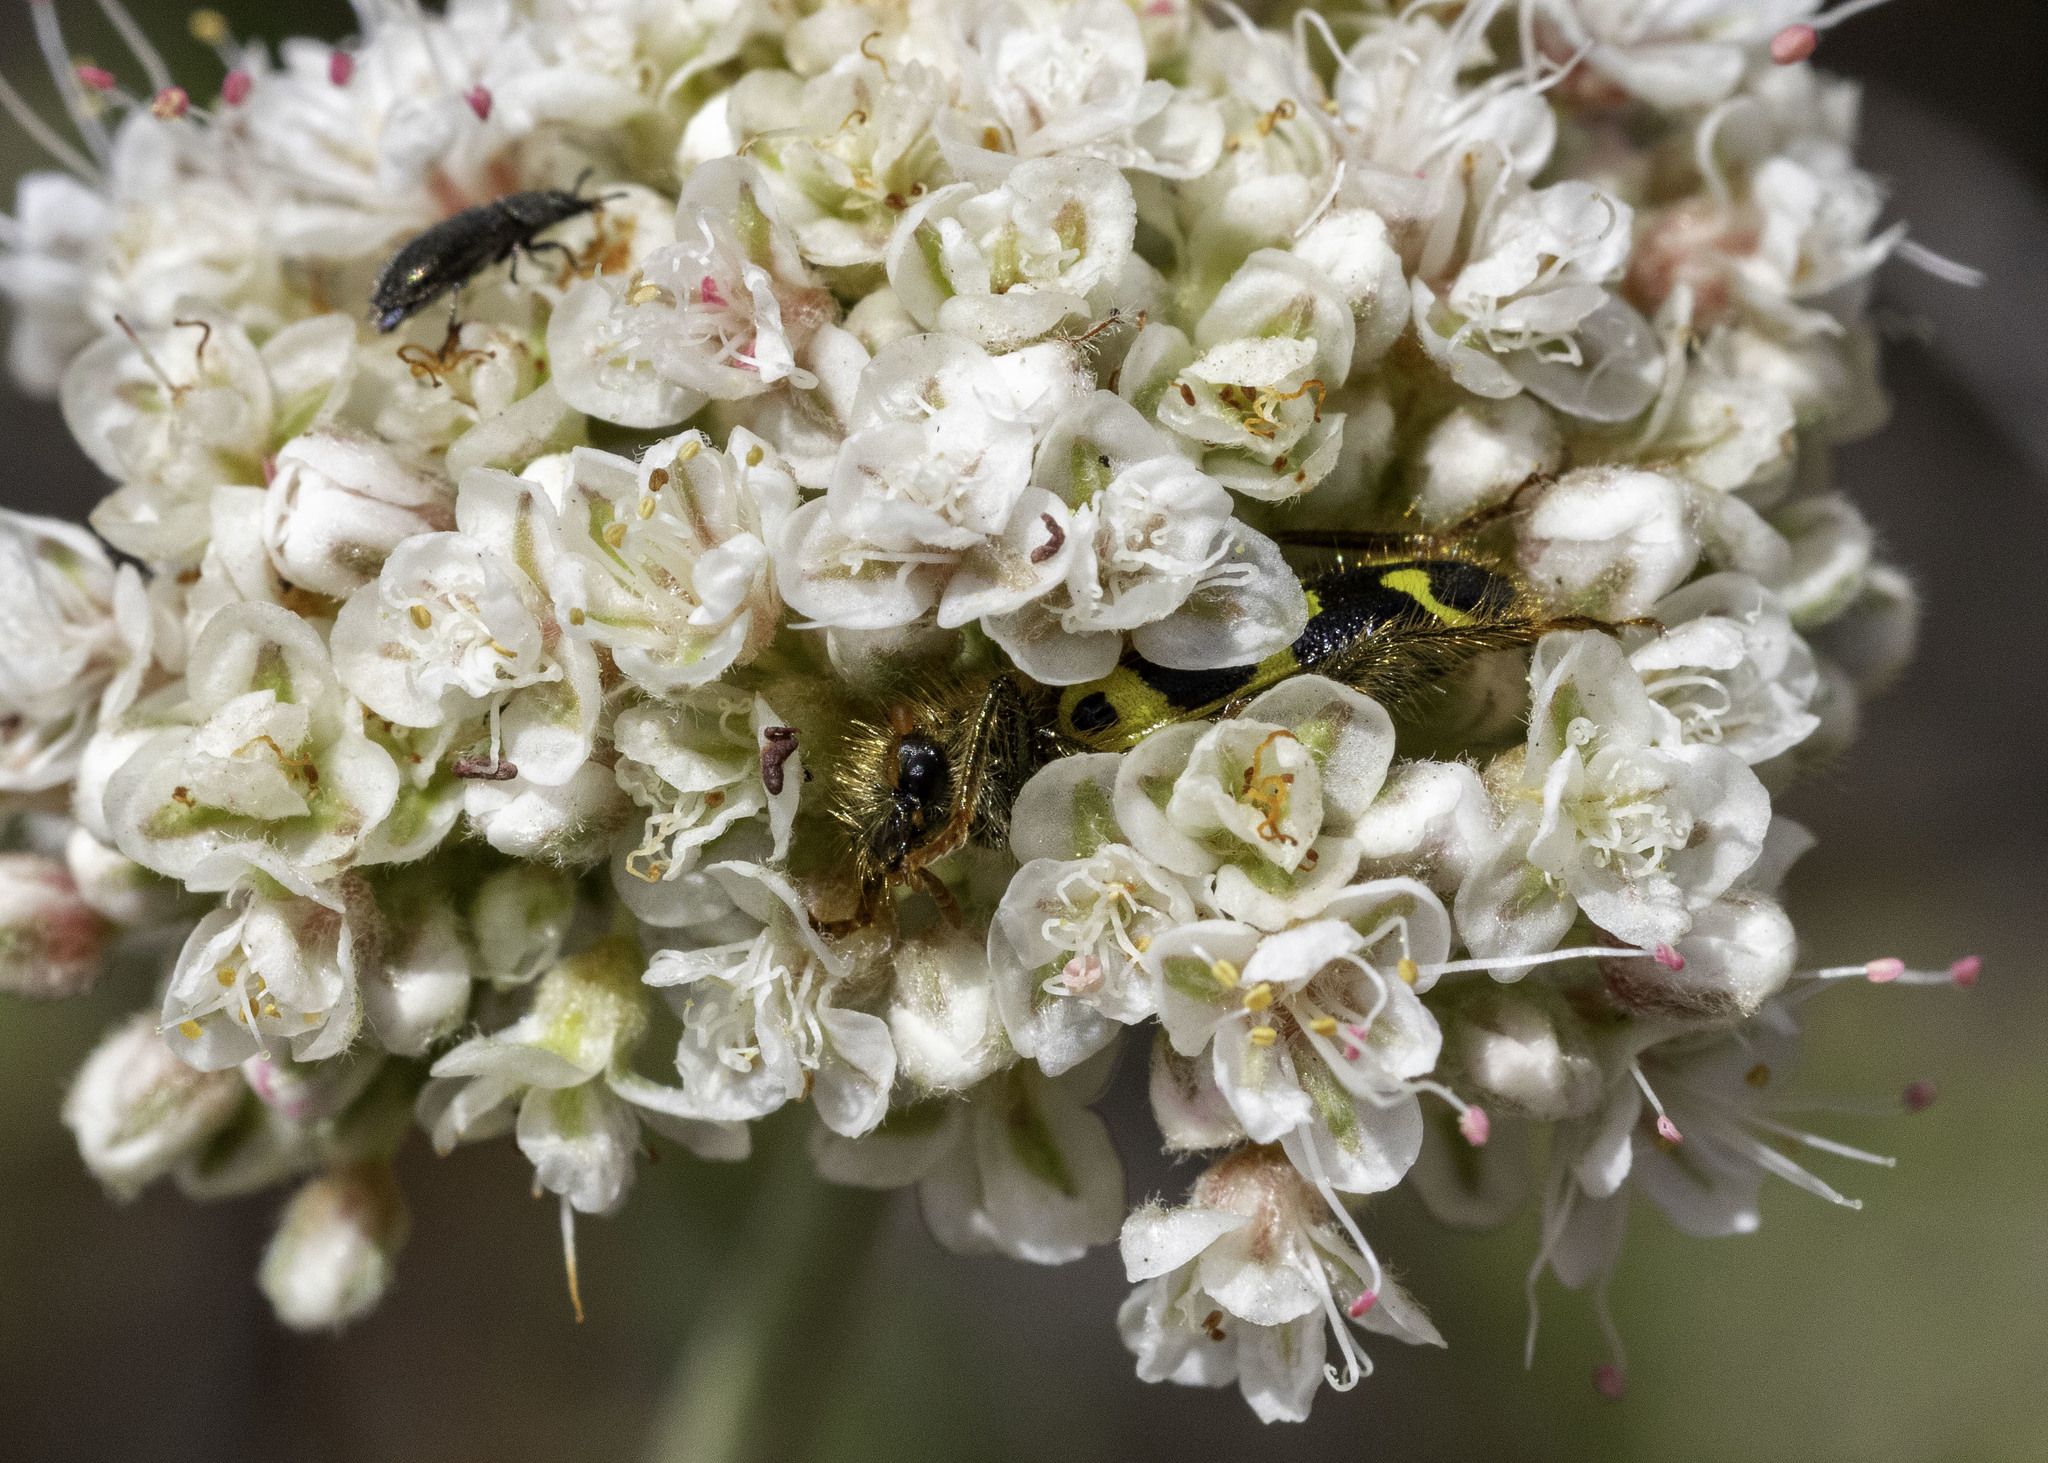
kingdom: Animalia
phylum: Arthropoda
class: Insecta
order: Coleoptera
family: Cleridae
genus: Trichodes
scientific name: Trichodes ornatus
